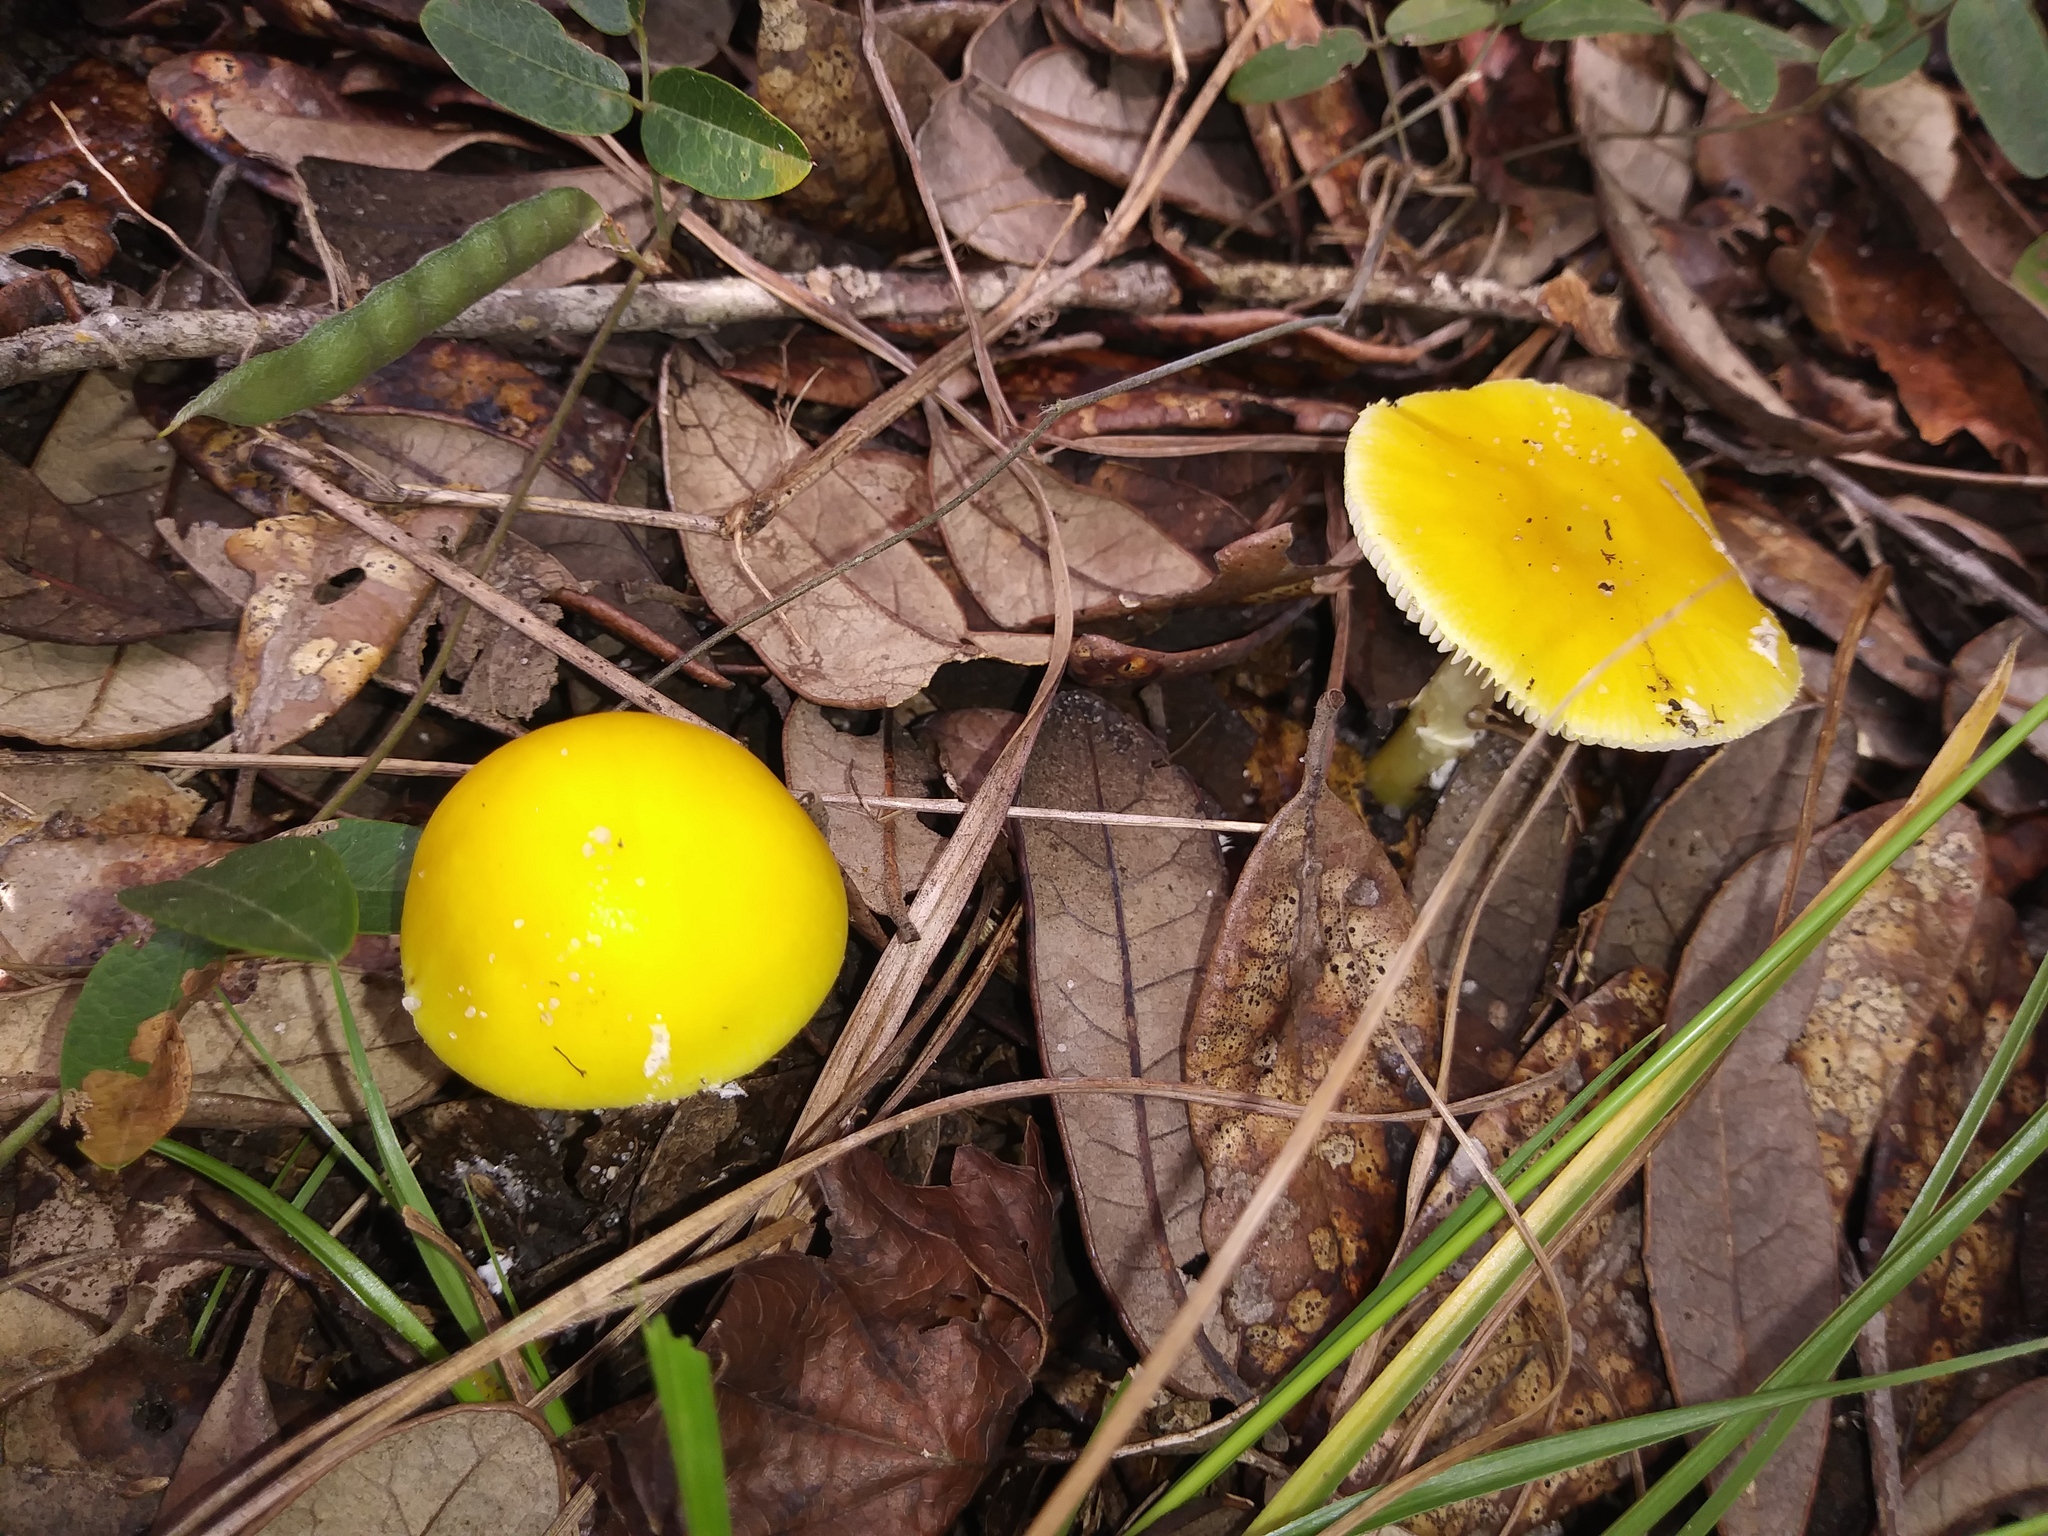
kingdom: Fungi
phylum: Basidiomycota
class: Agaricomycetes
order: Agaricales
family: Amanitaceae
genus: Amanita
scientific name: Amanita flavivolva
